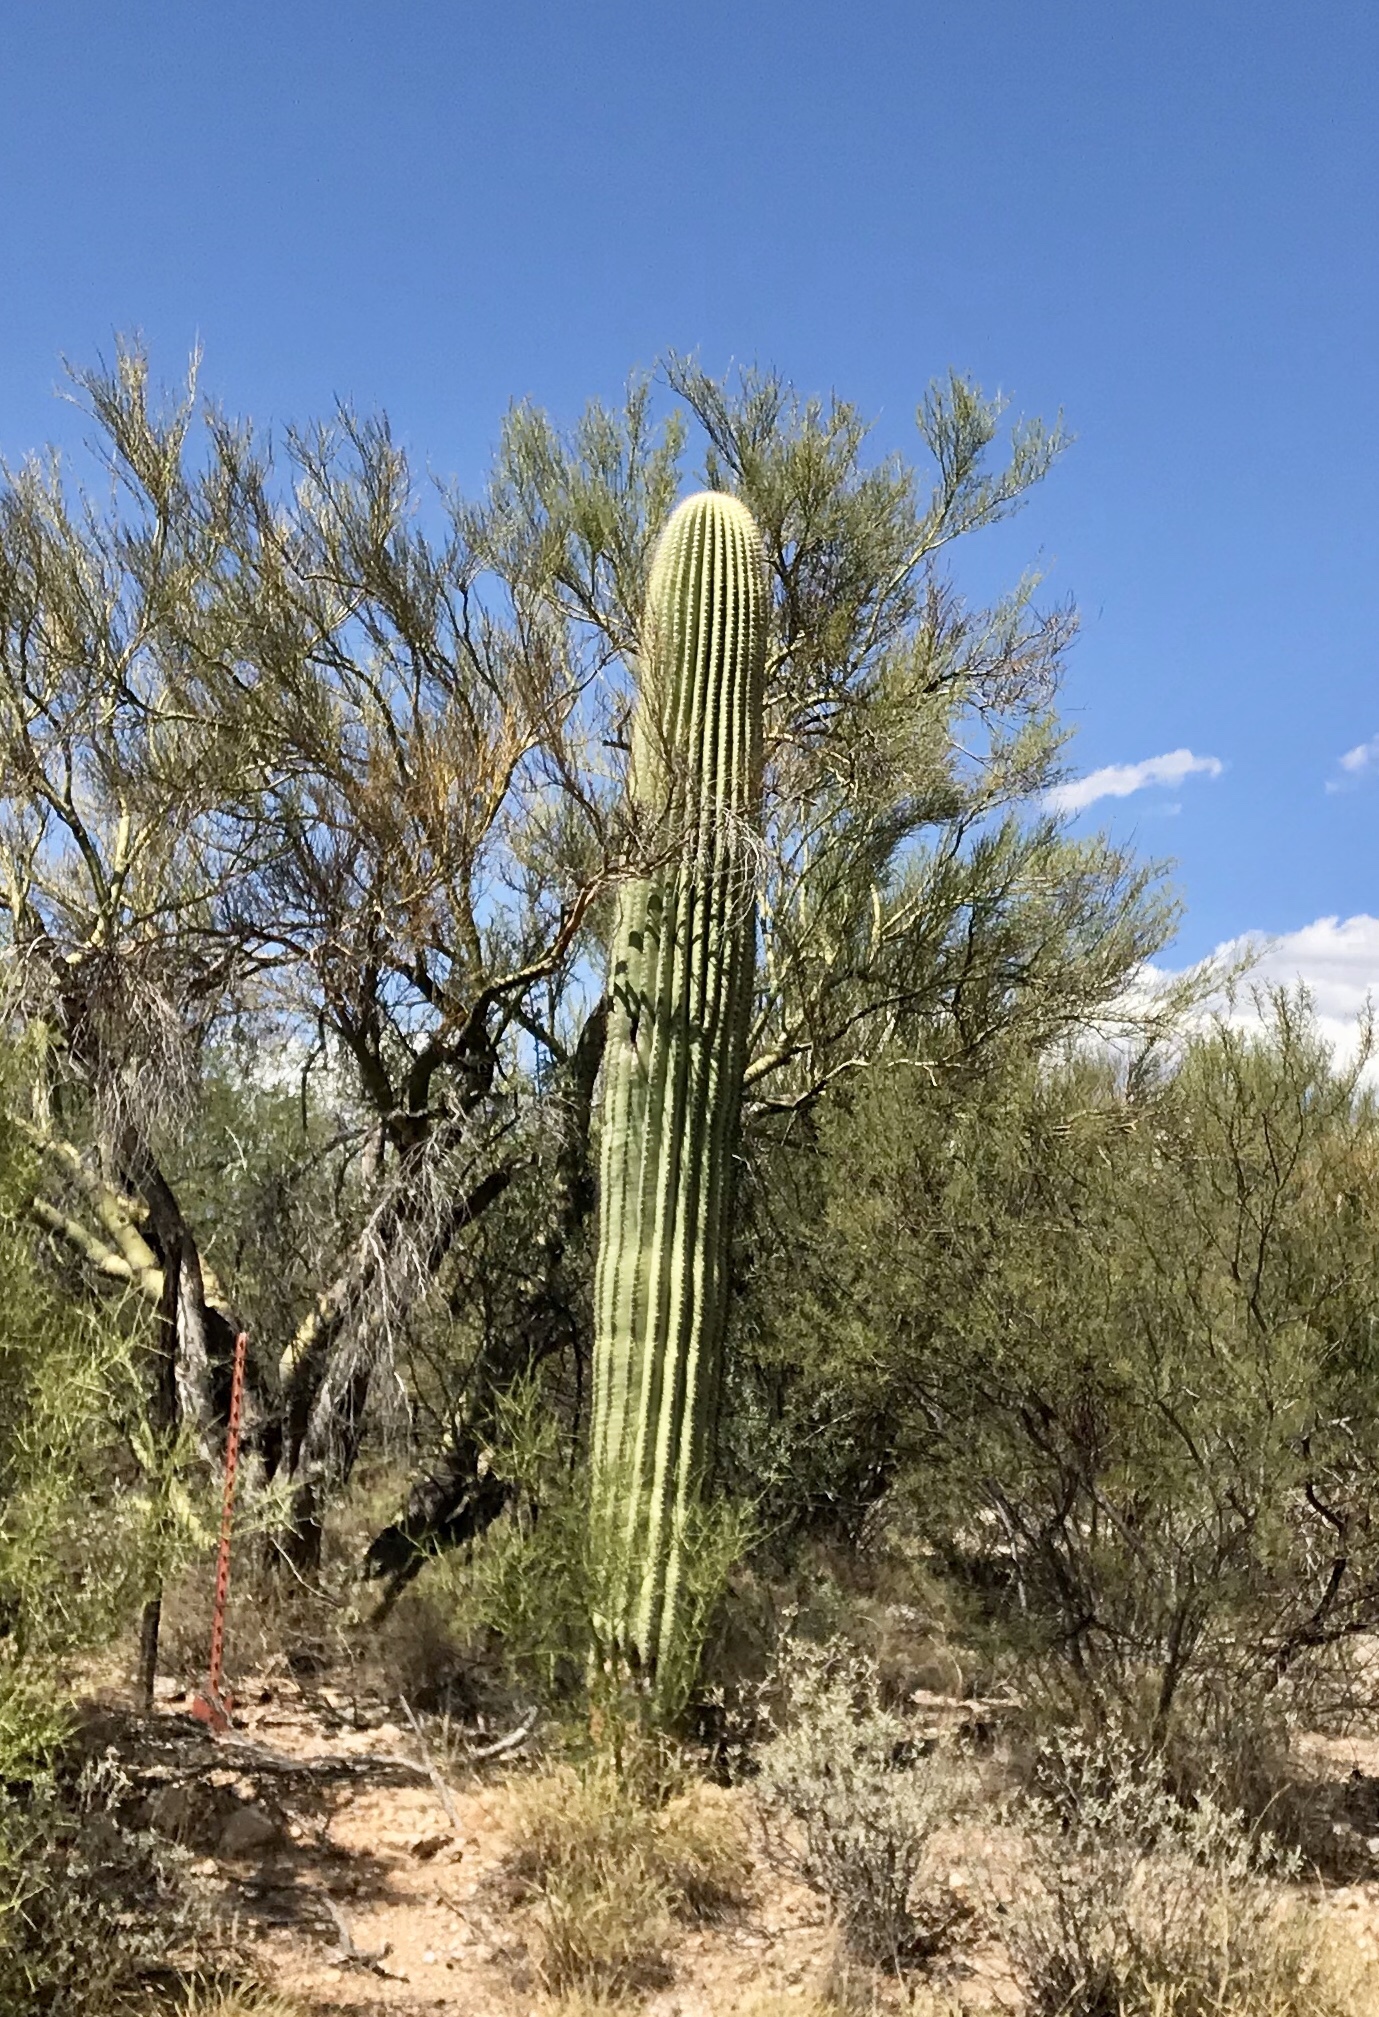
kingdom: Plantae
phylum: Tracheophyta
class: Magnoliopsida
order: Caryophyllales
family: Cactaceae
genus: Carnegiea
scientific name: Carnegiea gigantea
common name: Saguaro
